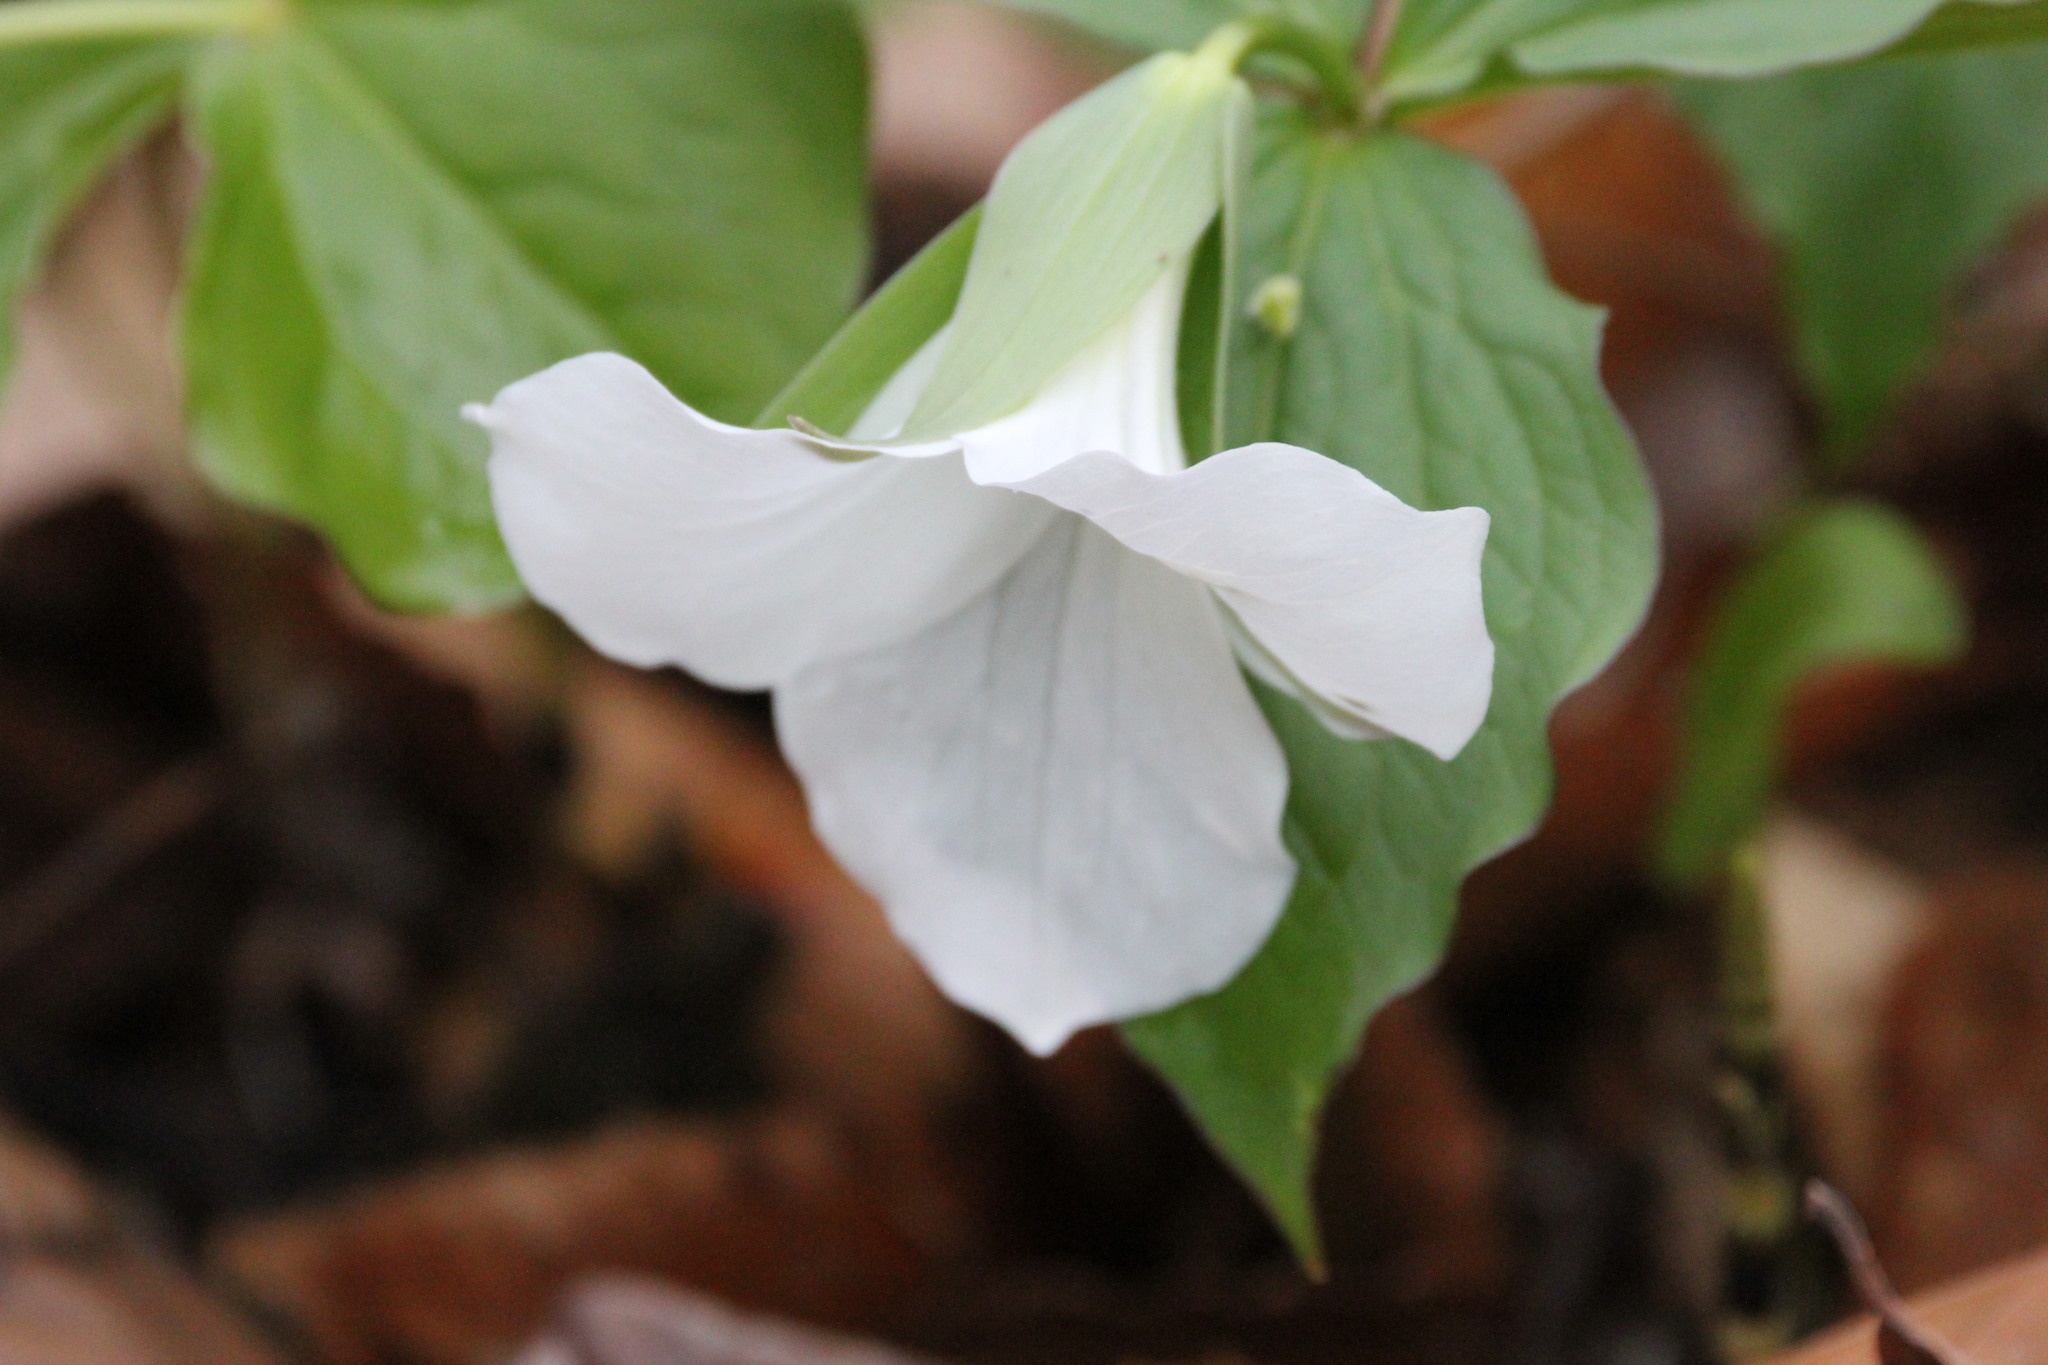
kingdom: Plantae
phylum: Tracheophyta
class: Liliopsida
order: Liliales
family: Melanthiaceae
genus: Trillium
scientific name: Trillium grandiflorum
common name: Great white trillium
